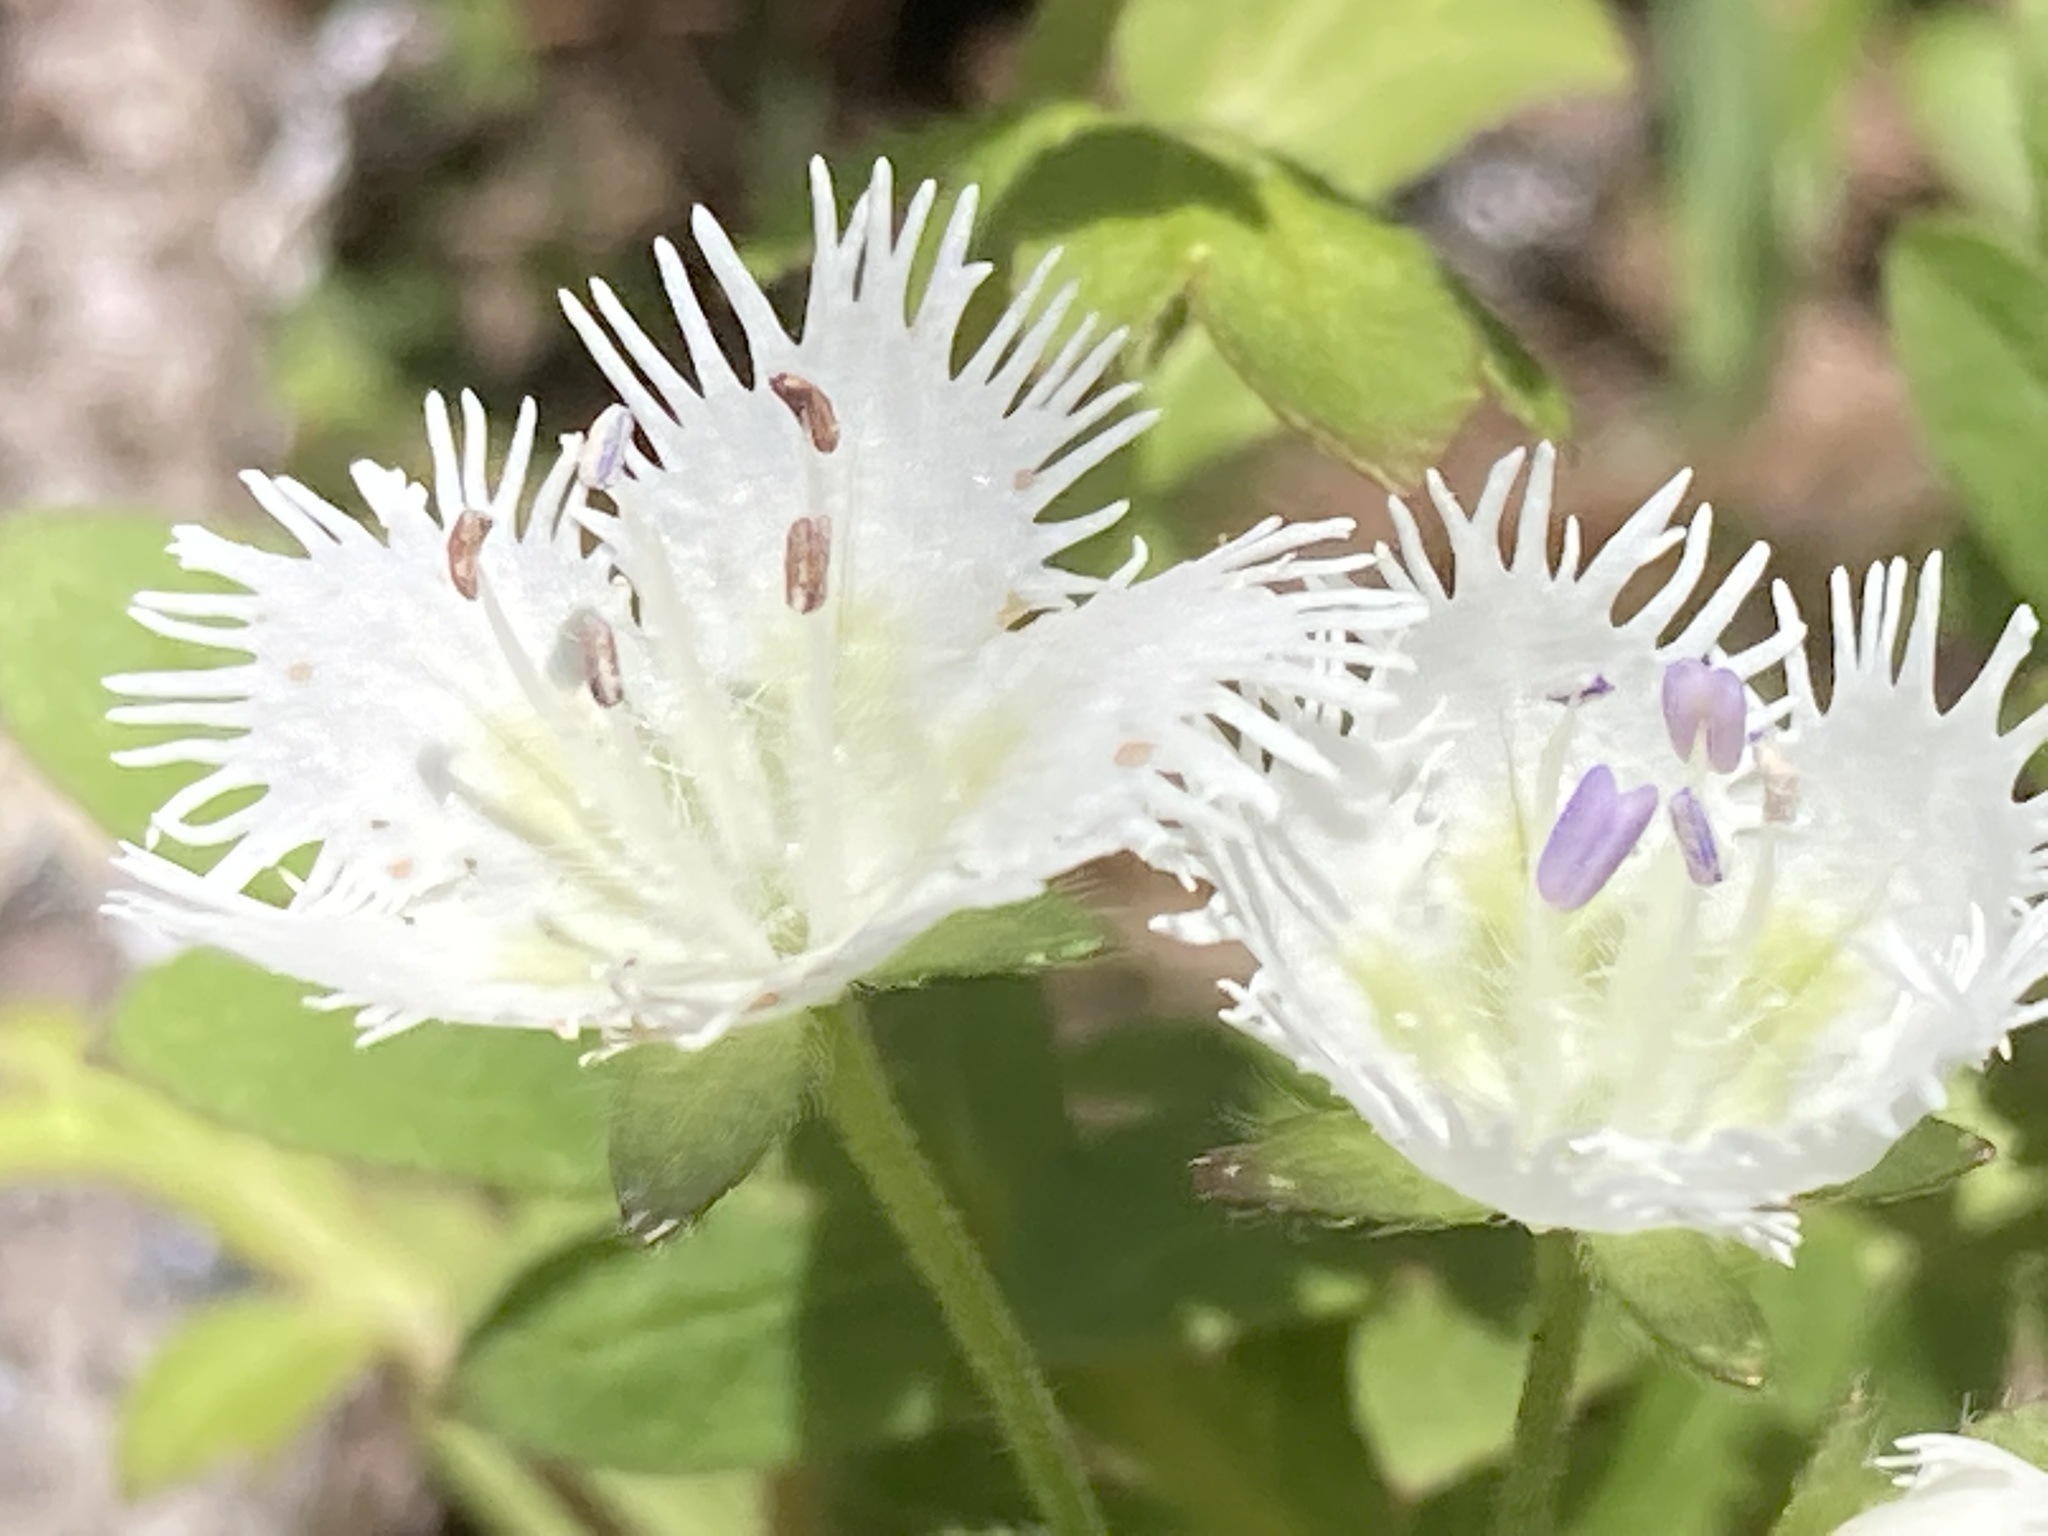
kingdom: Plantae
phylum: Tracheophyta
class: Magnoliopsida
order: Boraginales
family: Hydrophyllaceae
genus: Phacelia
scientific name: Phacelia fimbriata
